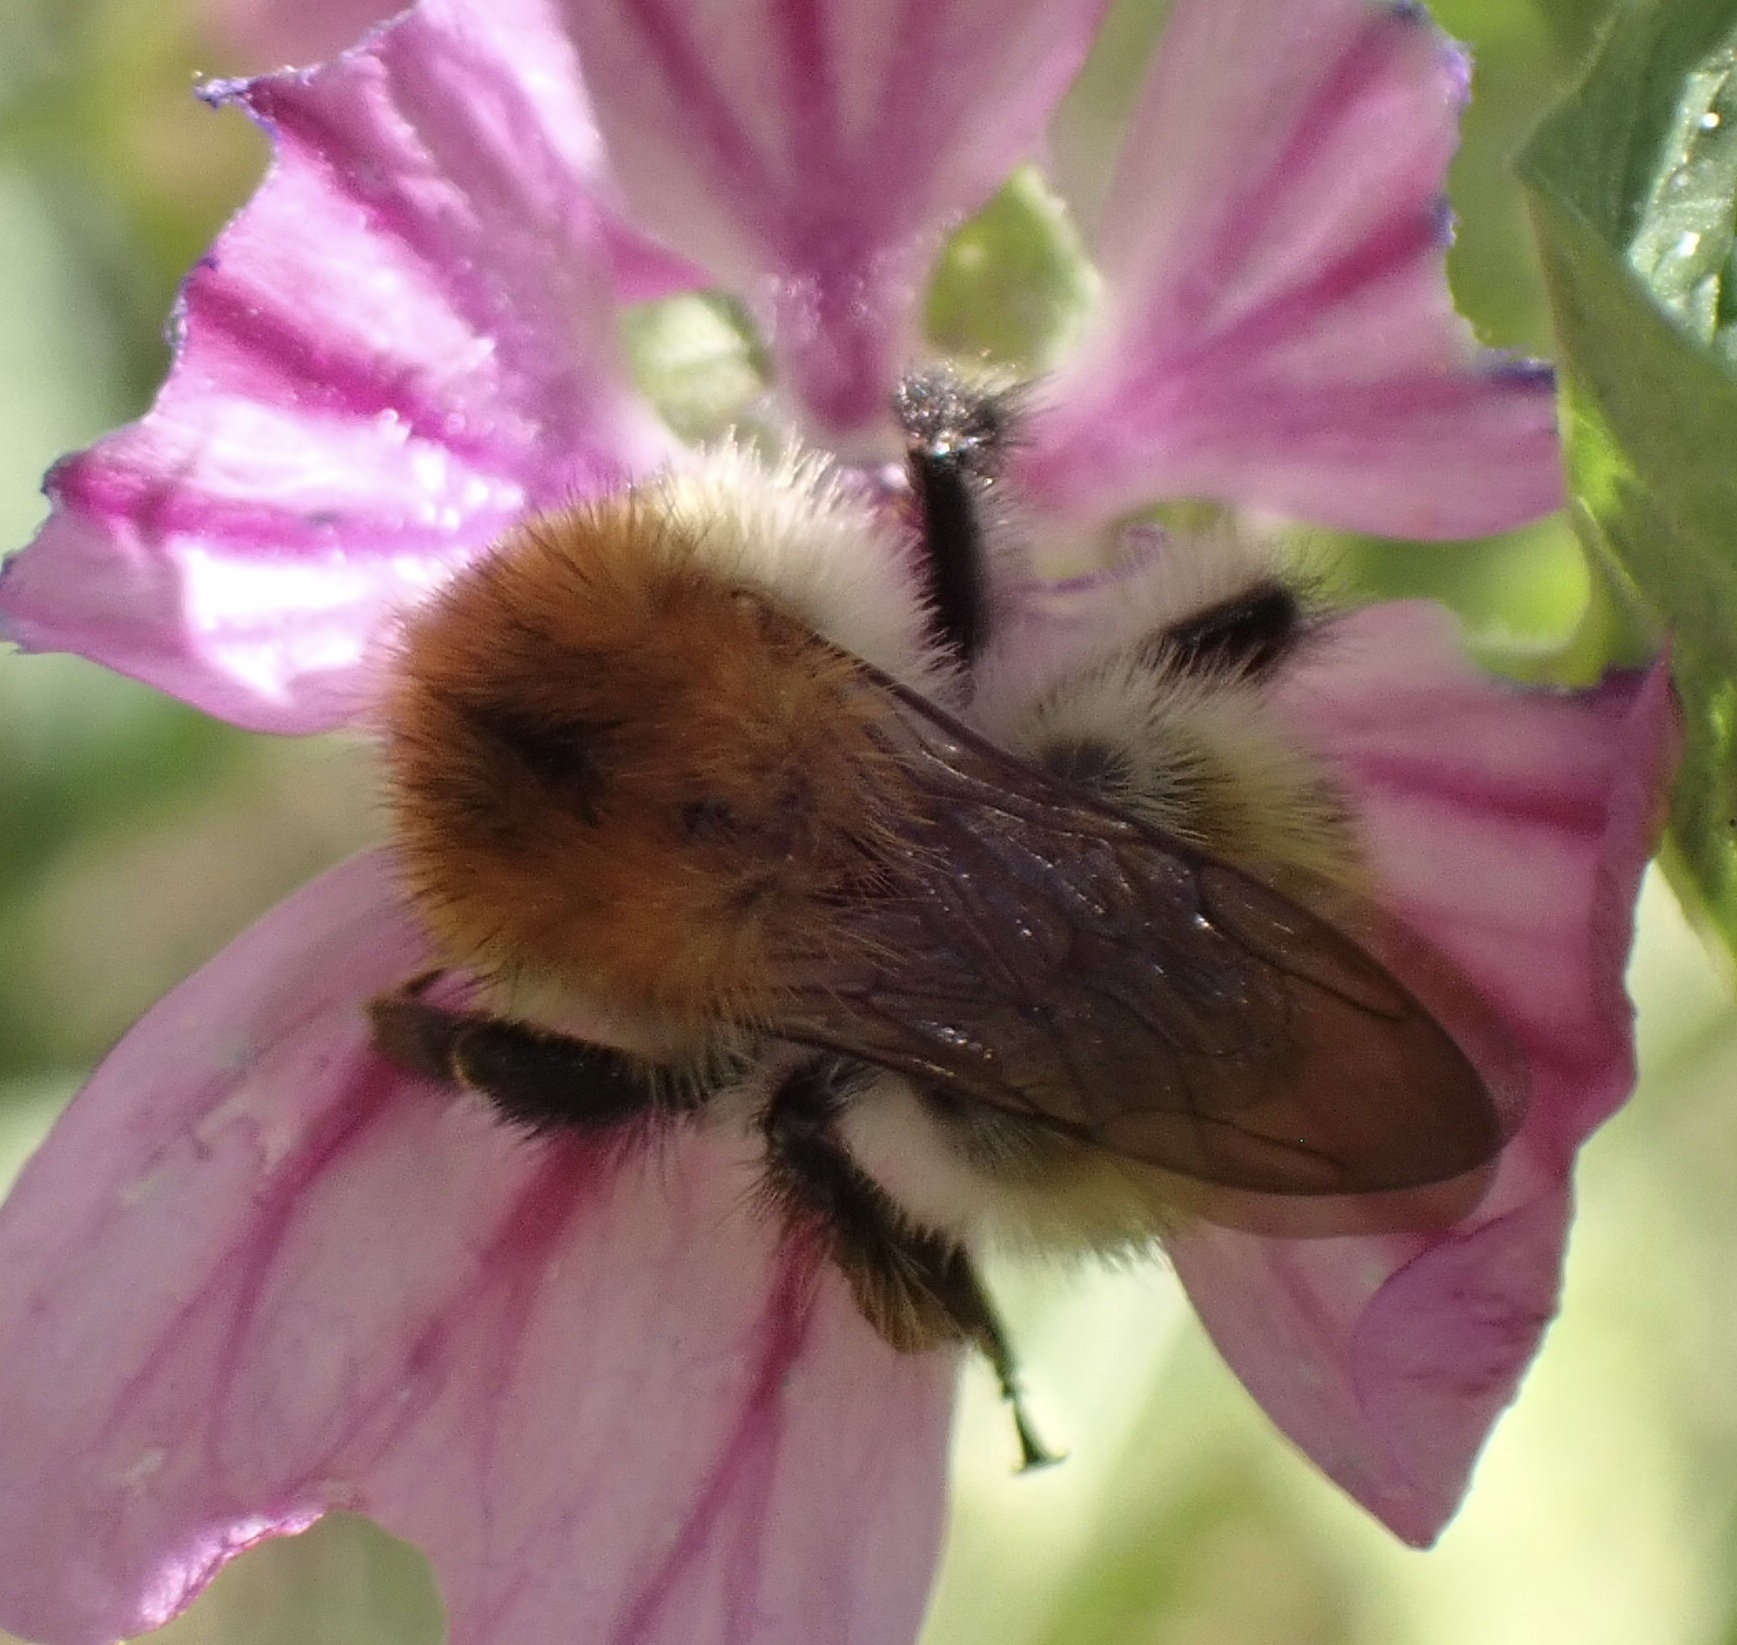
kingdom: Animalia
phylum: Arthropoda
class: Insecta
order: Hymenoptera
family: Apidae
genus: Bombus
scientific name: Bombus pascuorum
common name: Common carder bee
